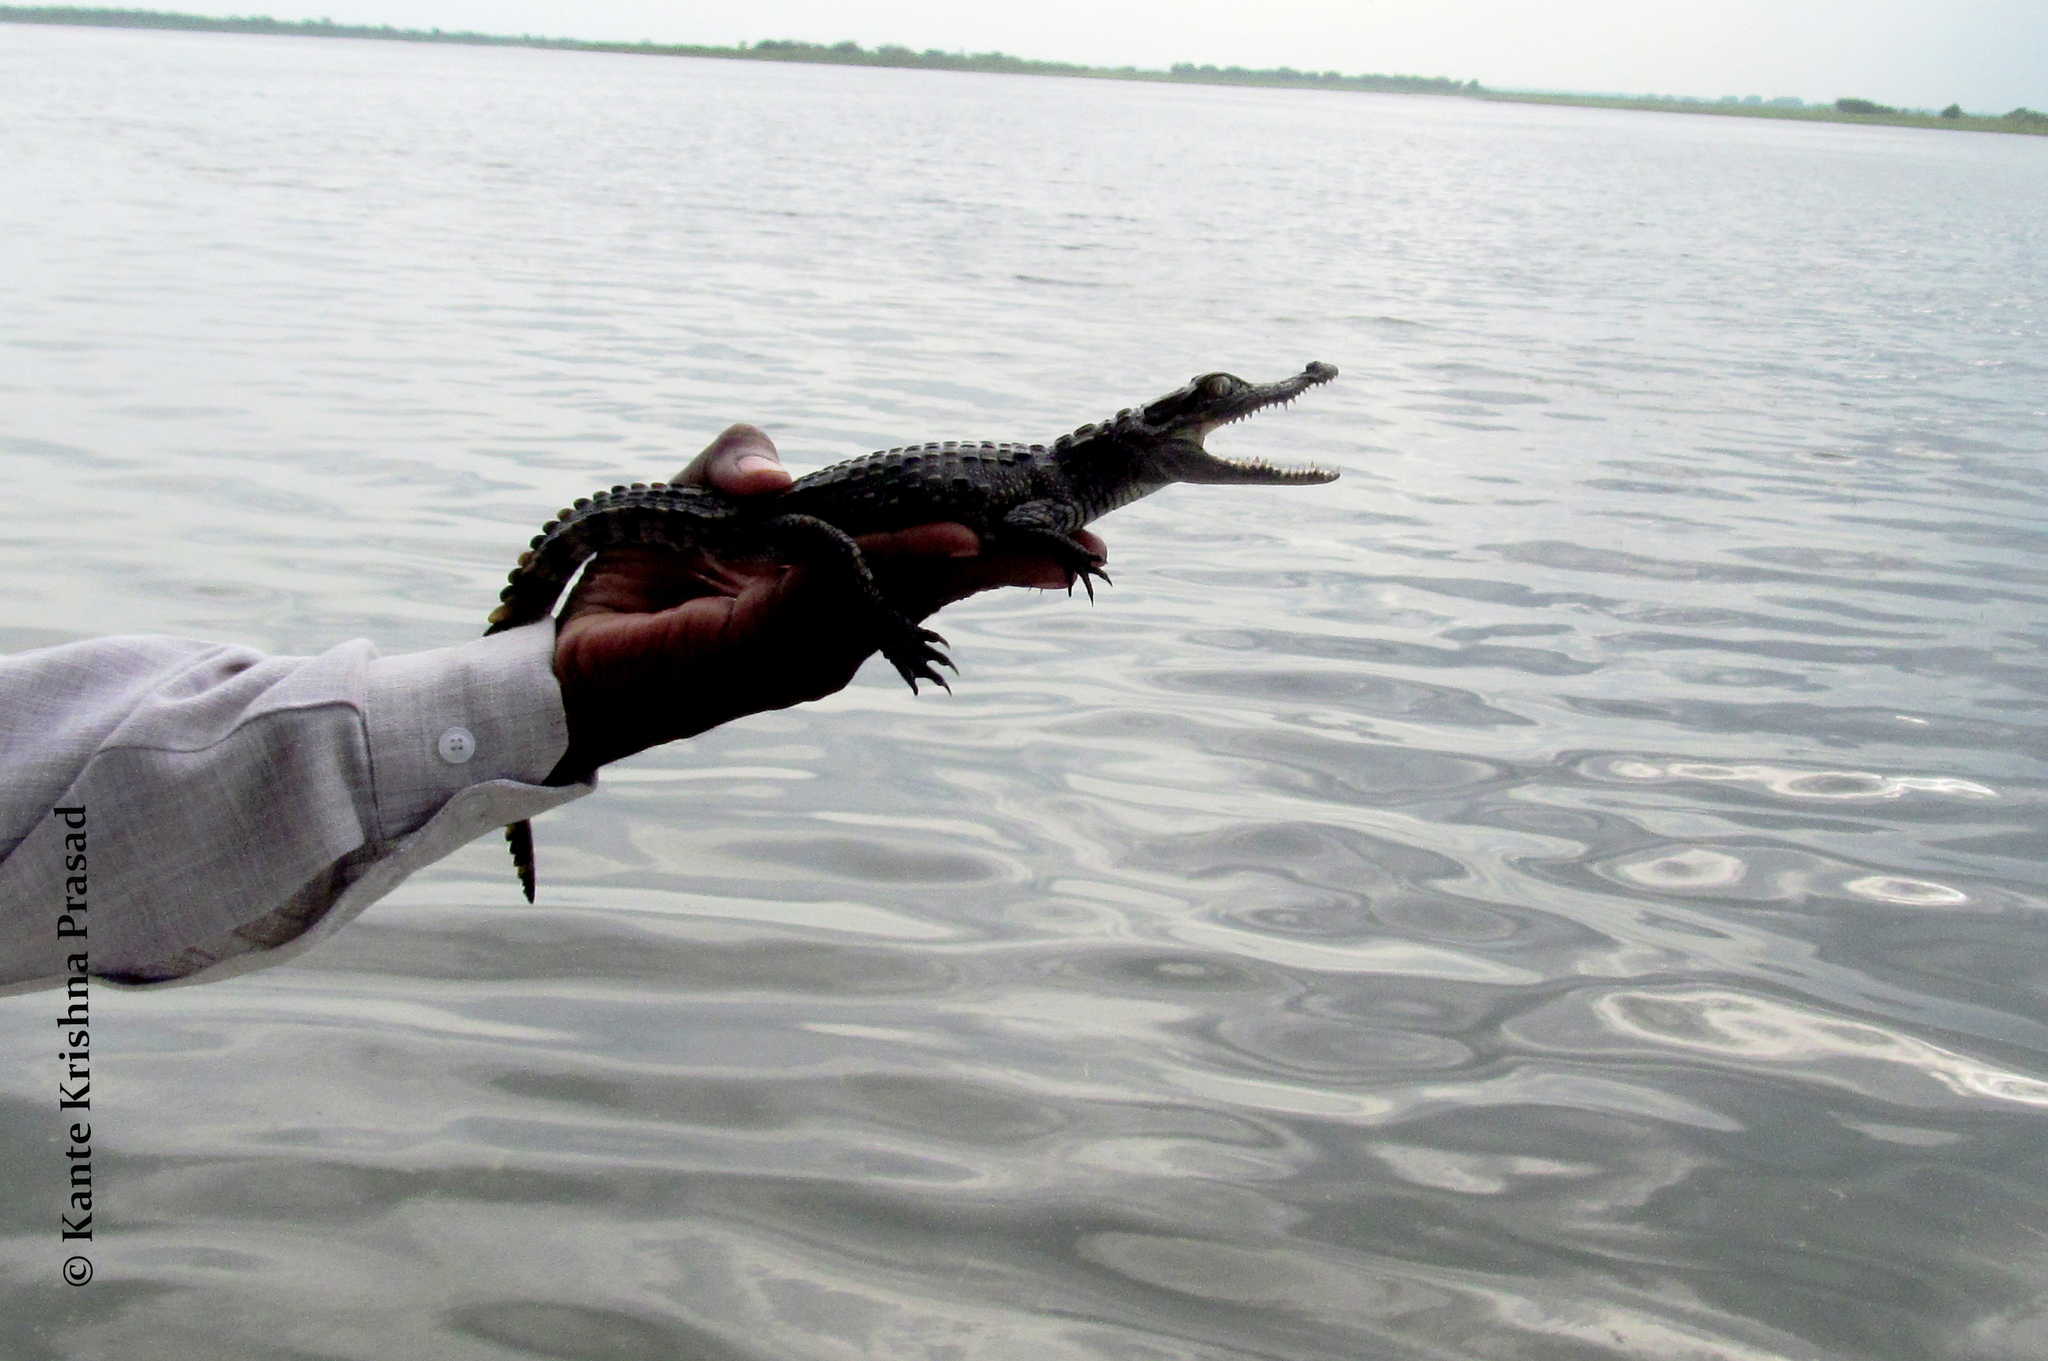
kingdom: Animalia
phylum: Chordata
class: Crocodylia
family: Crocodylidae
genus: Crocodylus
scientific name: Crocodylus palustris
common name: Mugger crocodile
